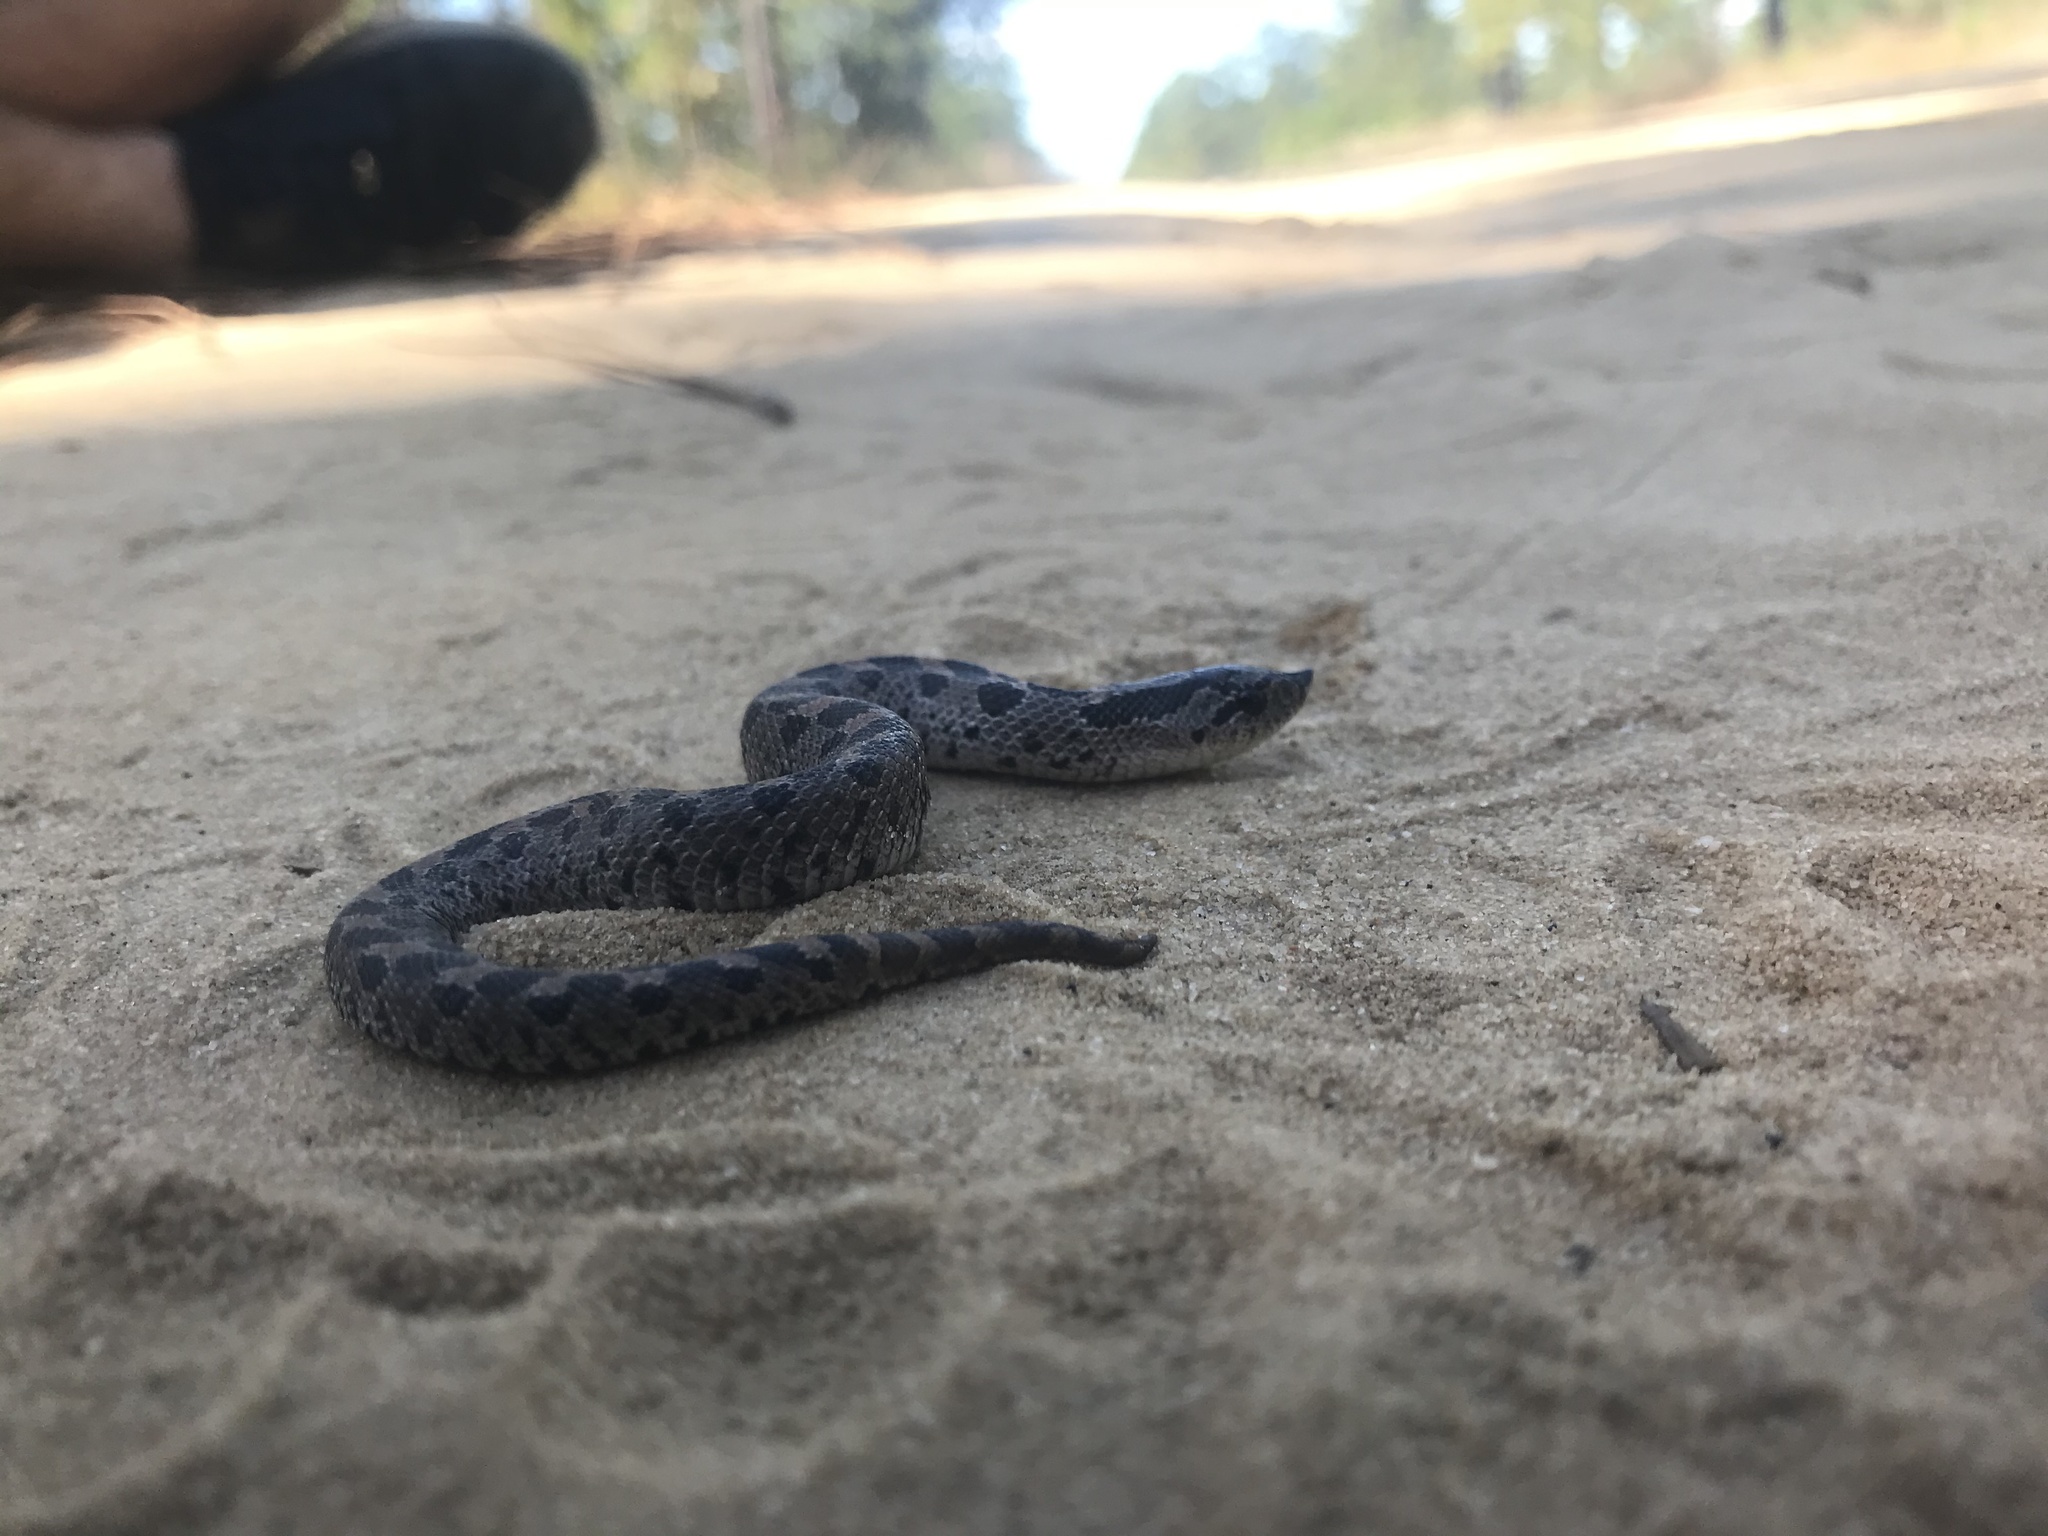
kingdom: Animalia
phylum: Chordata
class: Squamata
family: Colubridae
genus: Heterodon
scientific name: Heterodon simus
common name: Southern hognose snake
